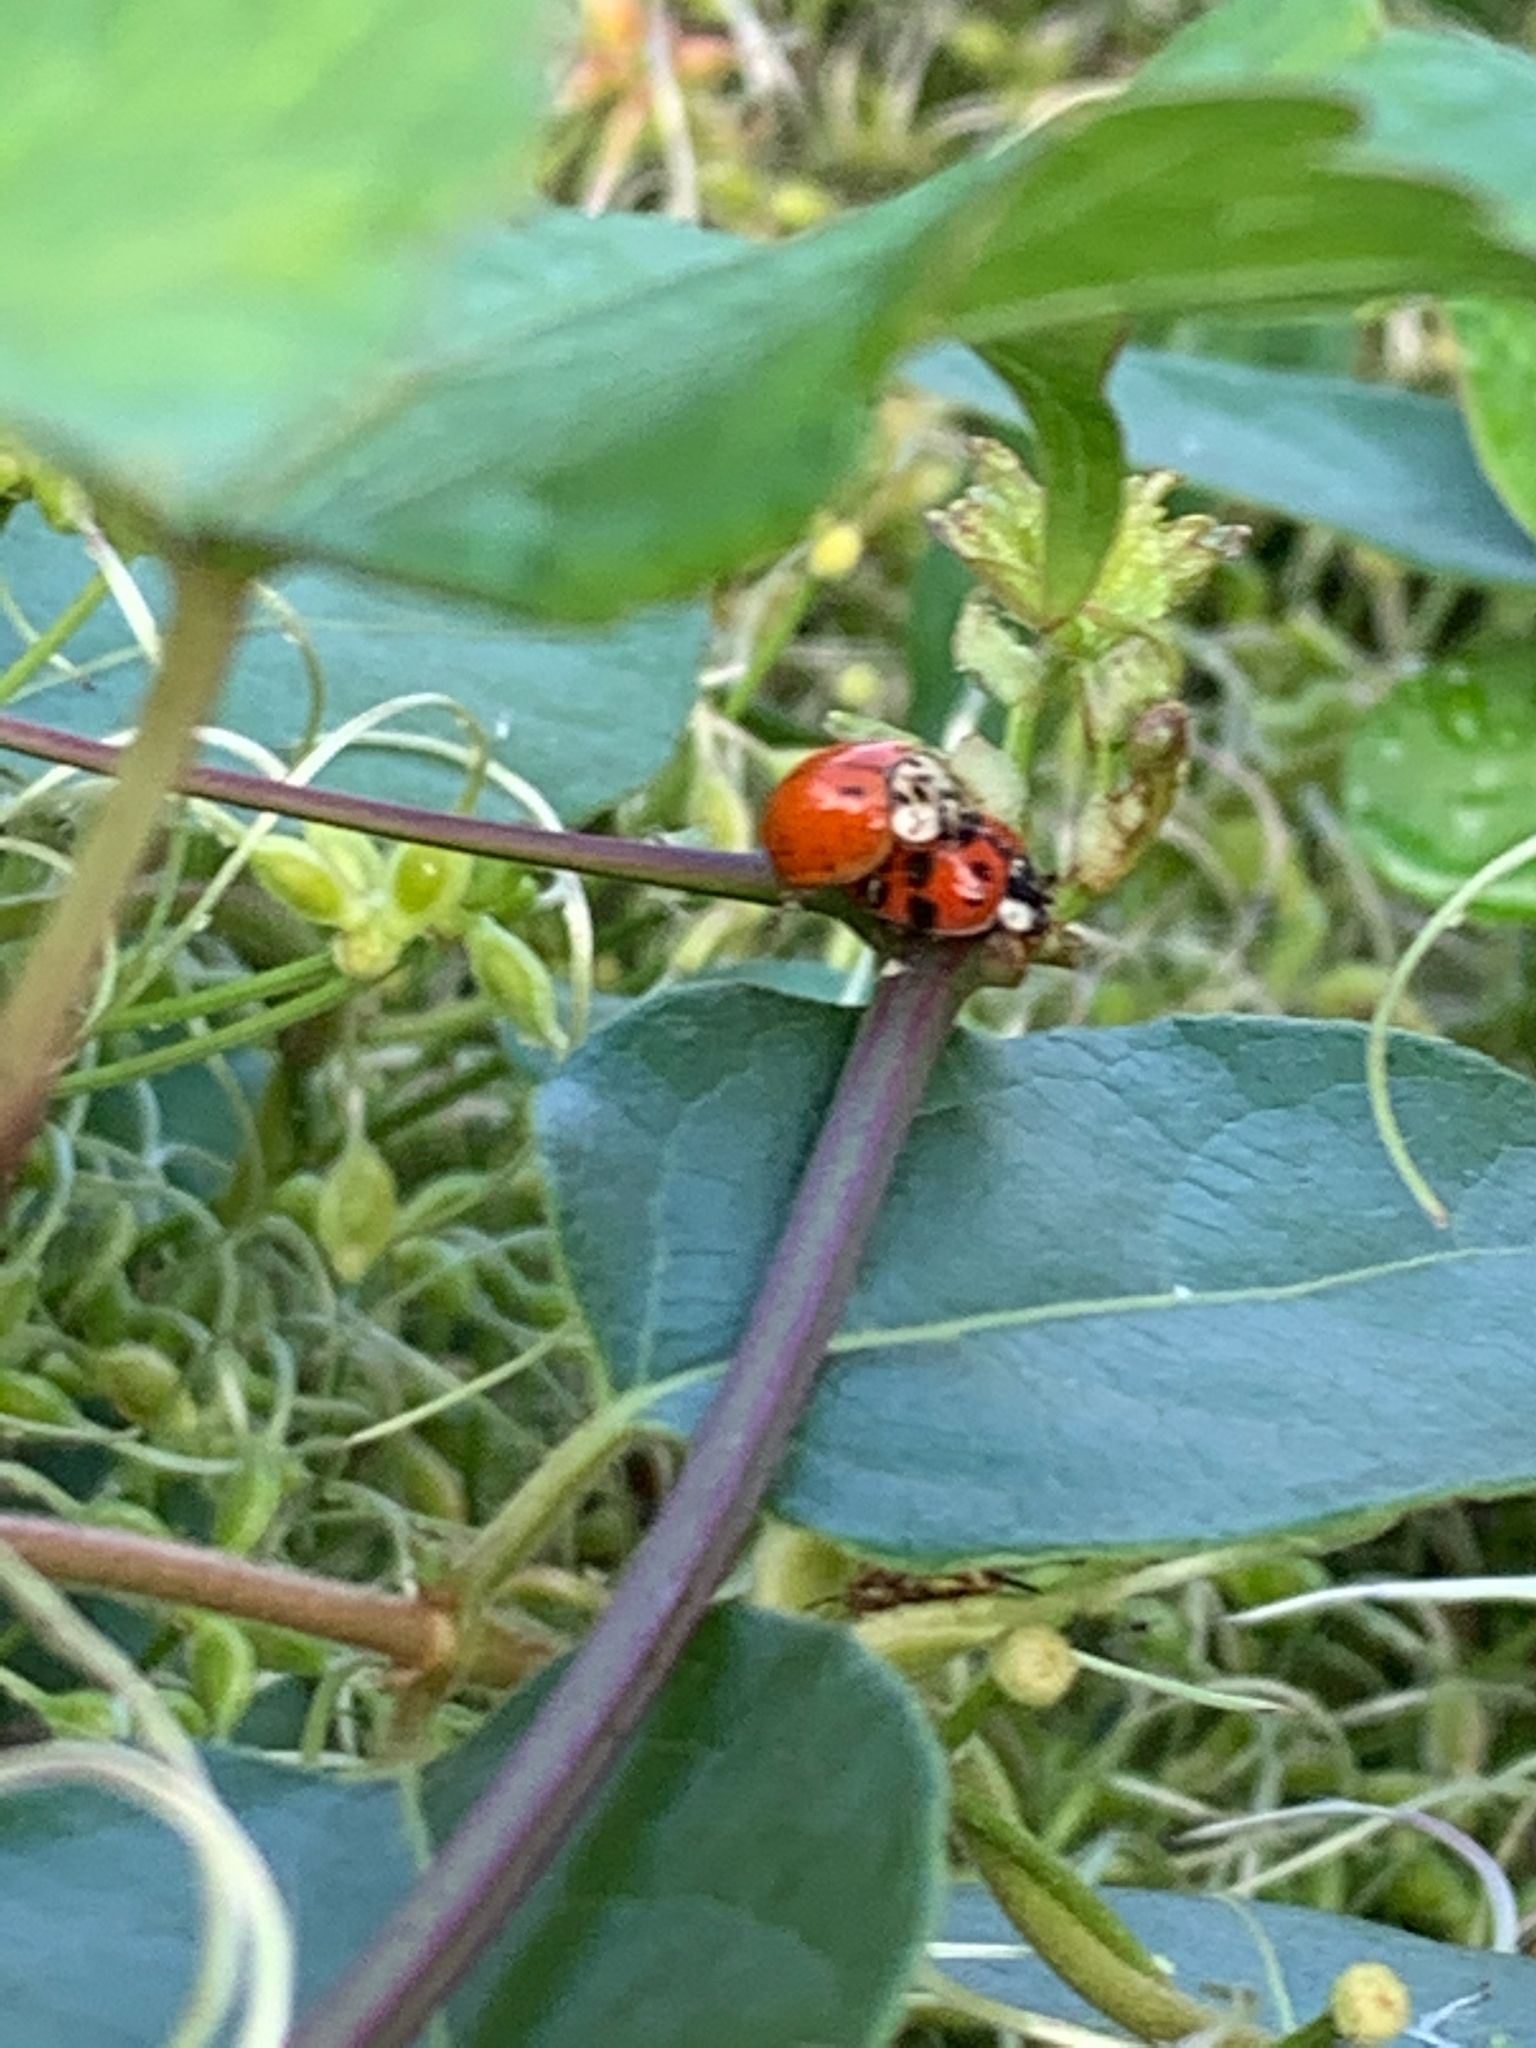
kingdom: Animalia
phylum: Arthropoda
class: Insecta
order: Coleoptera
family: Coccinellidae
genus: Harmonia
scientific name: Harmonia axyridis
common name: Harlequin ladybird
